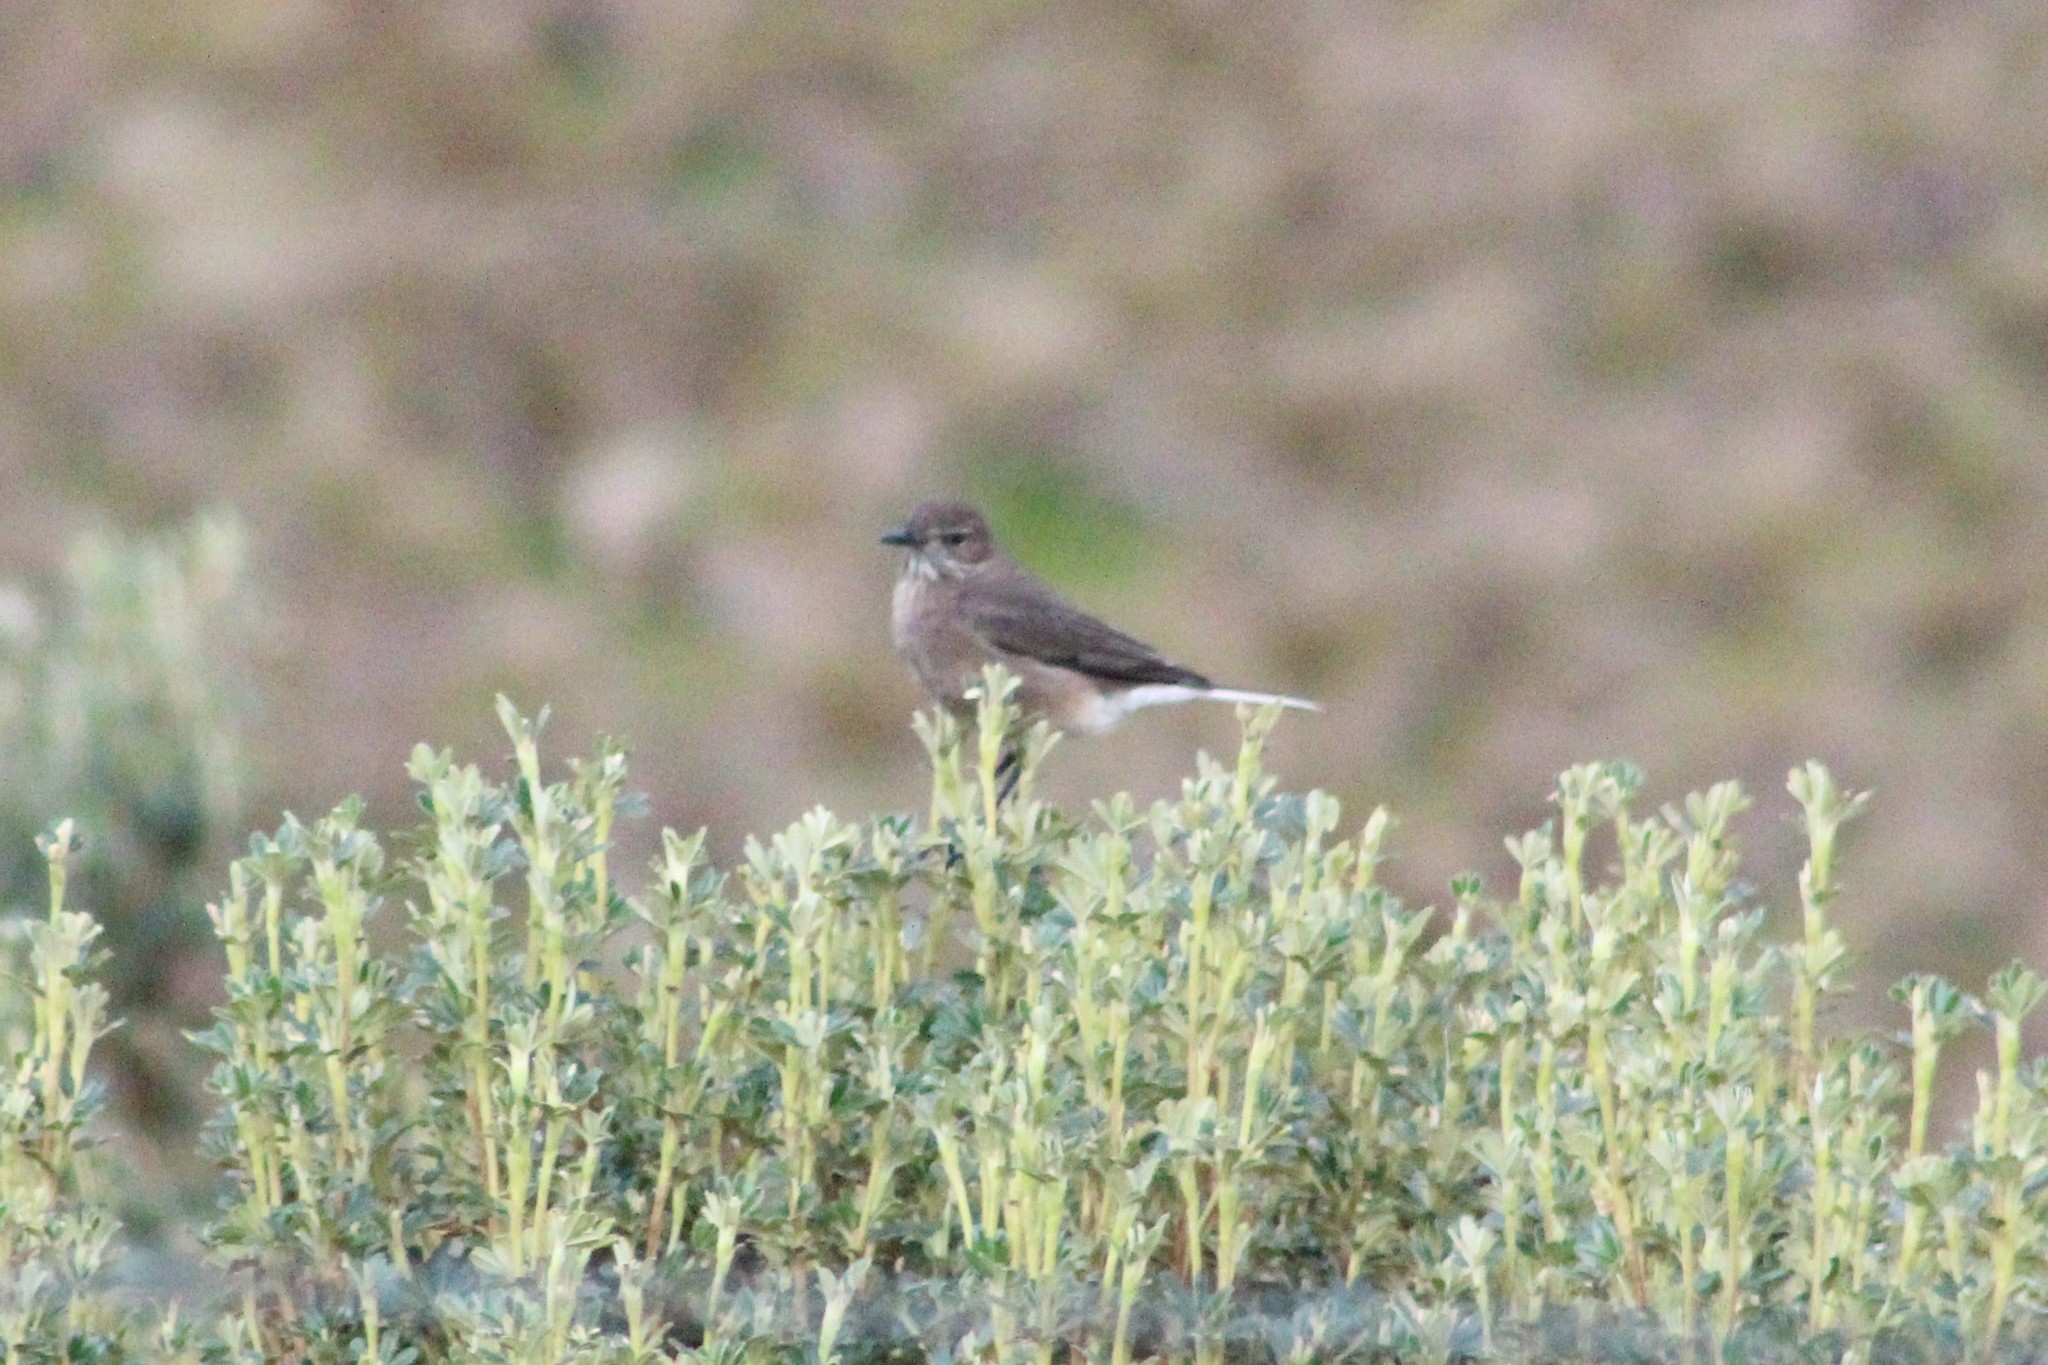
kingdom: Animalia
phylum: Chordata
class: Aves
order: Passeriformes
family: Tyrannidae
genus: Agriornis
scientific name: Agriornis montanus
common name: Black-billed shrike-tyrant
